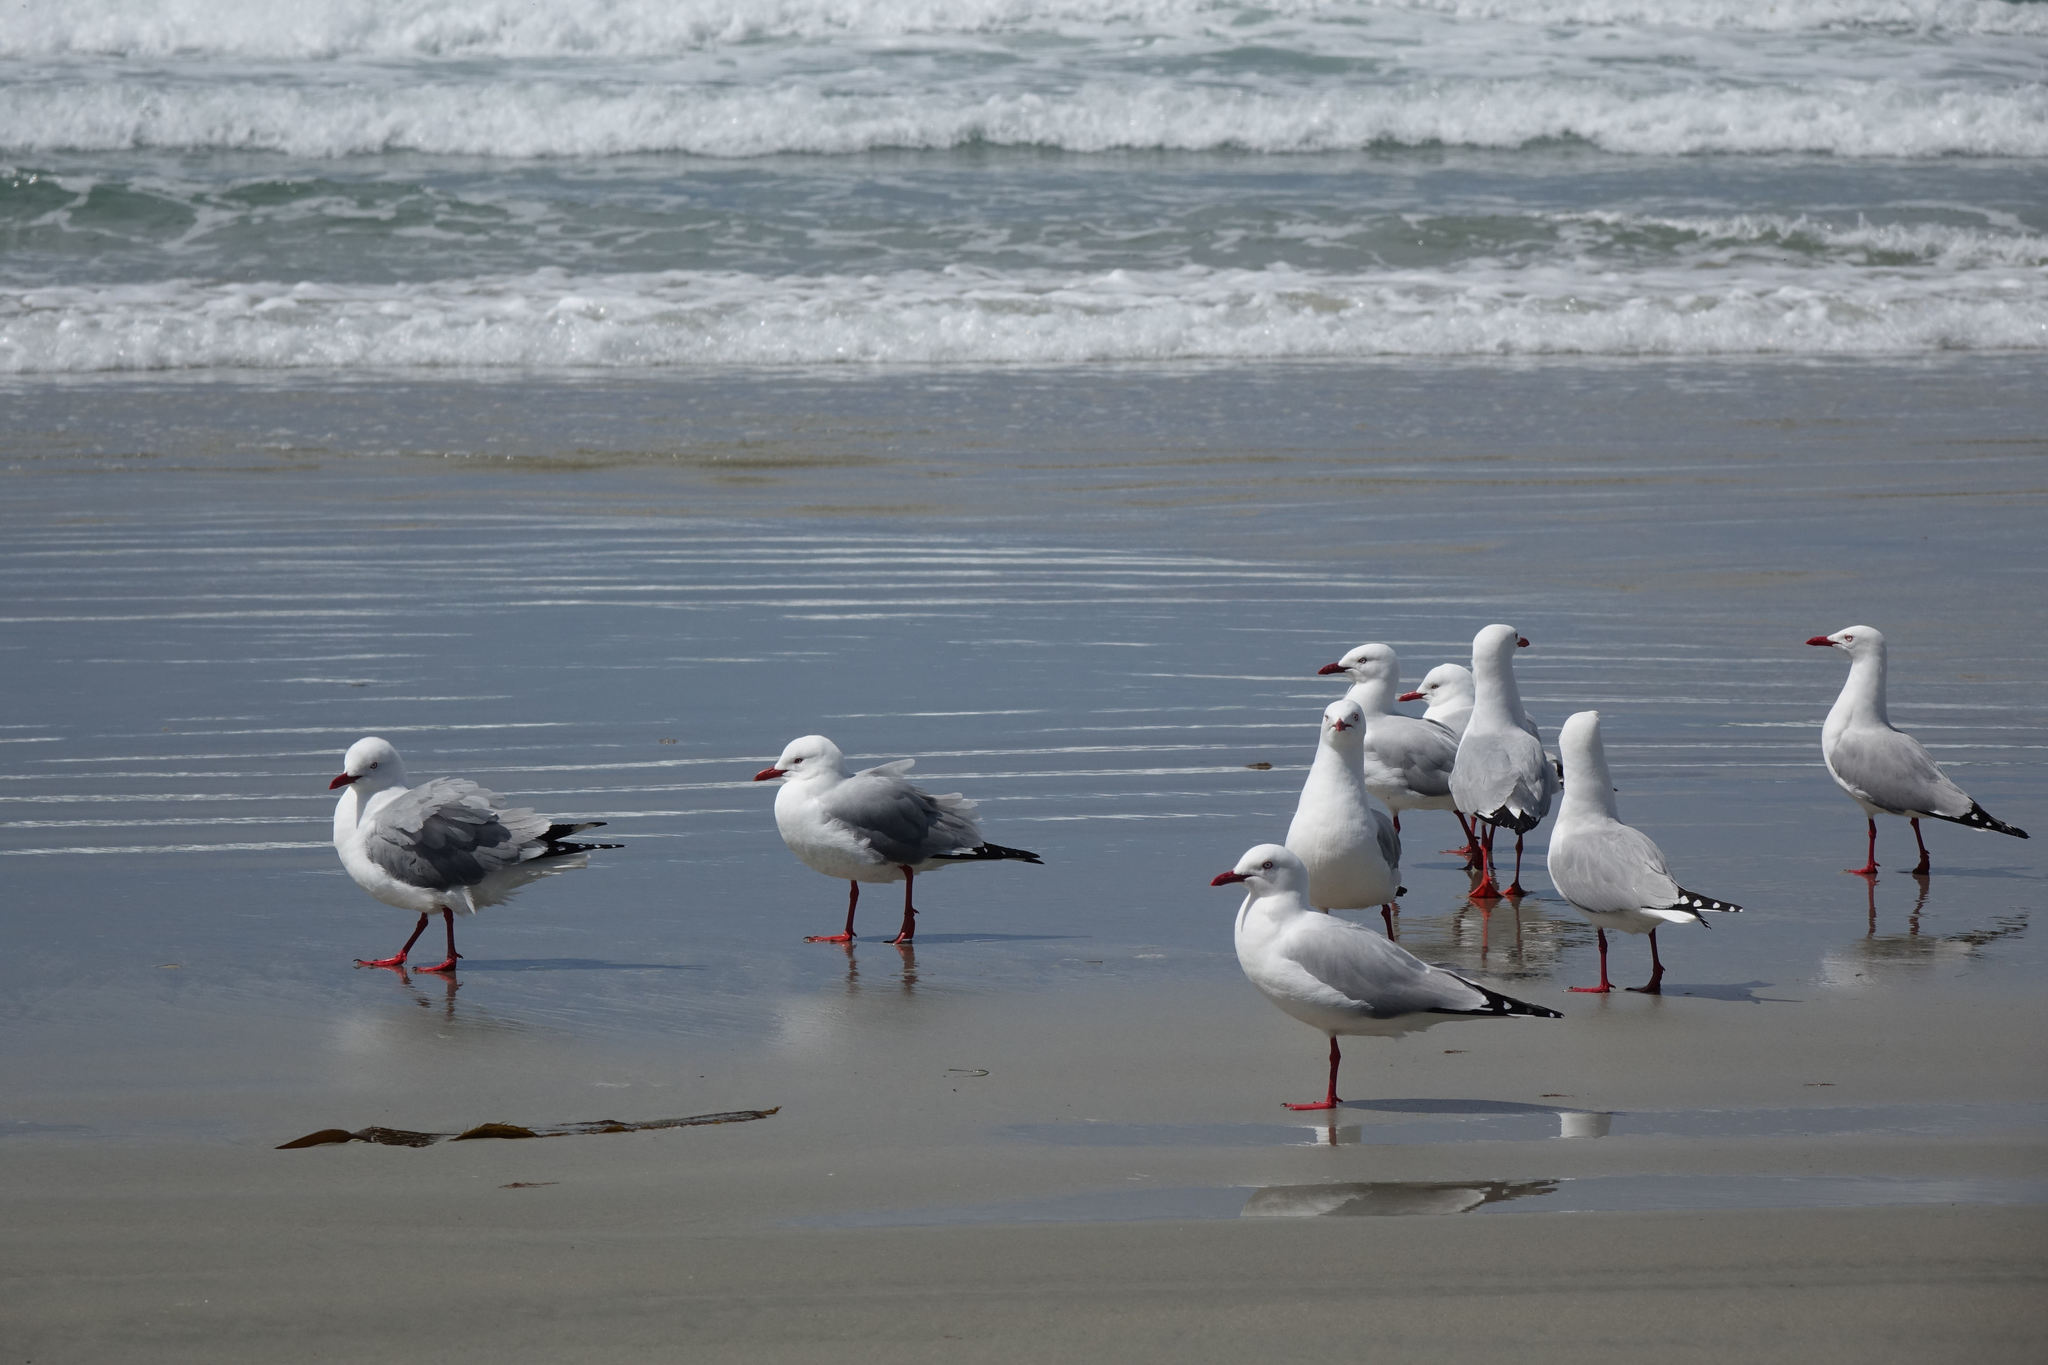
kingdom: Animalia
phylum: Chordata
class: Aves
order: Charadriiformes
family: Laridae
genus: Chroicocephalus
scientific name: Chroicocephalus novaehollandiae
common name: Silver gull
